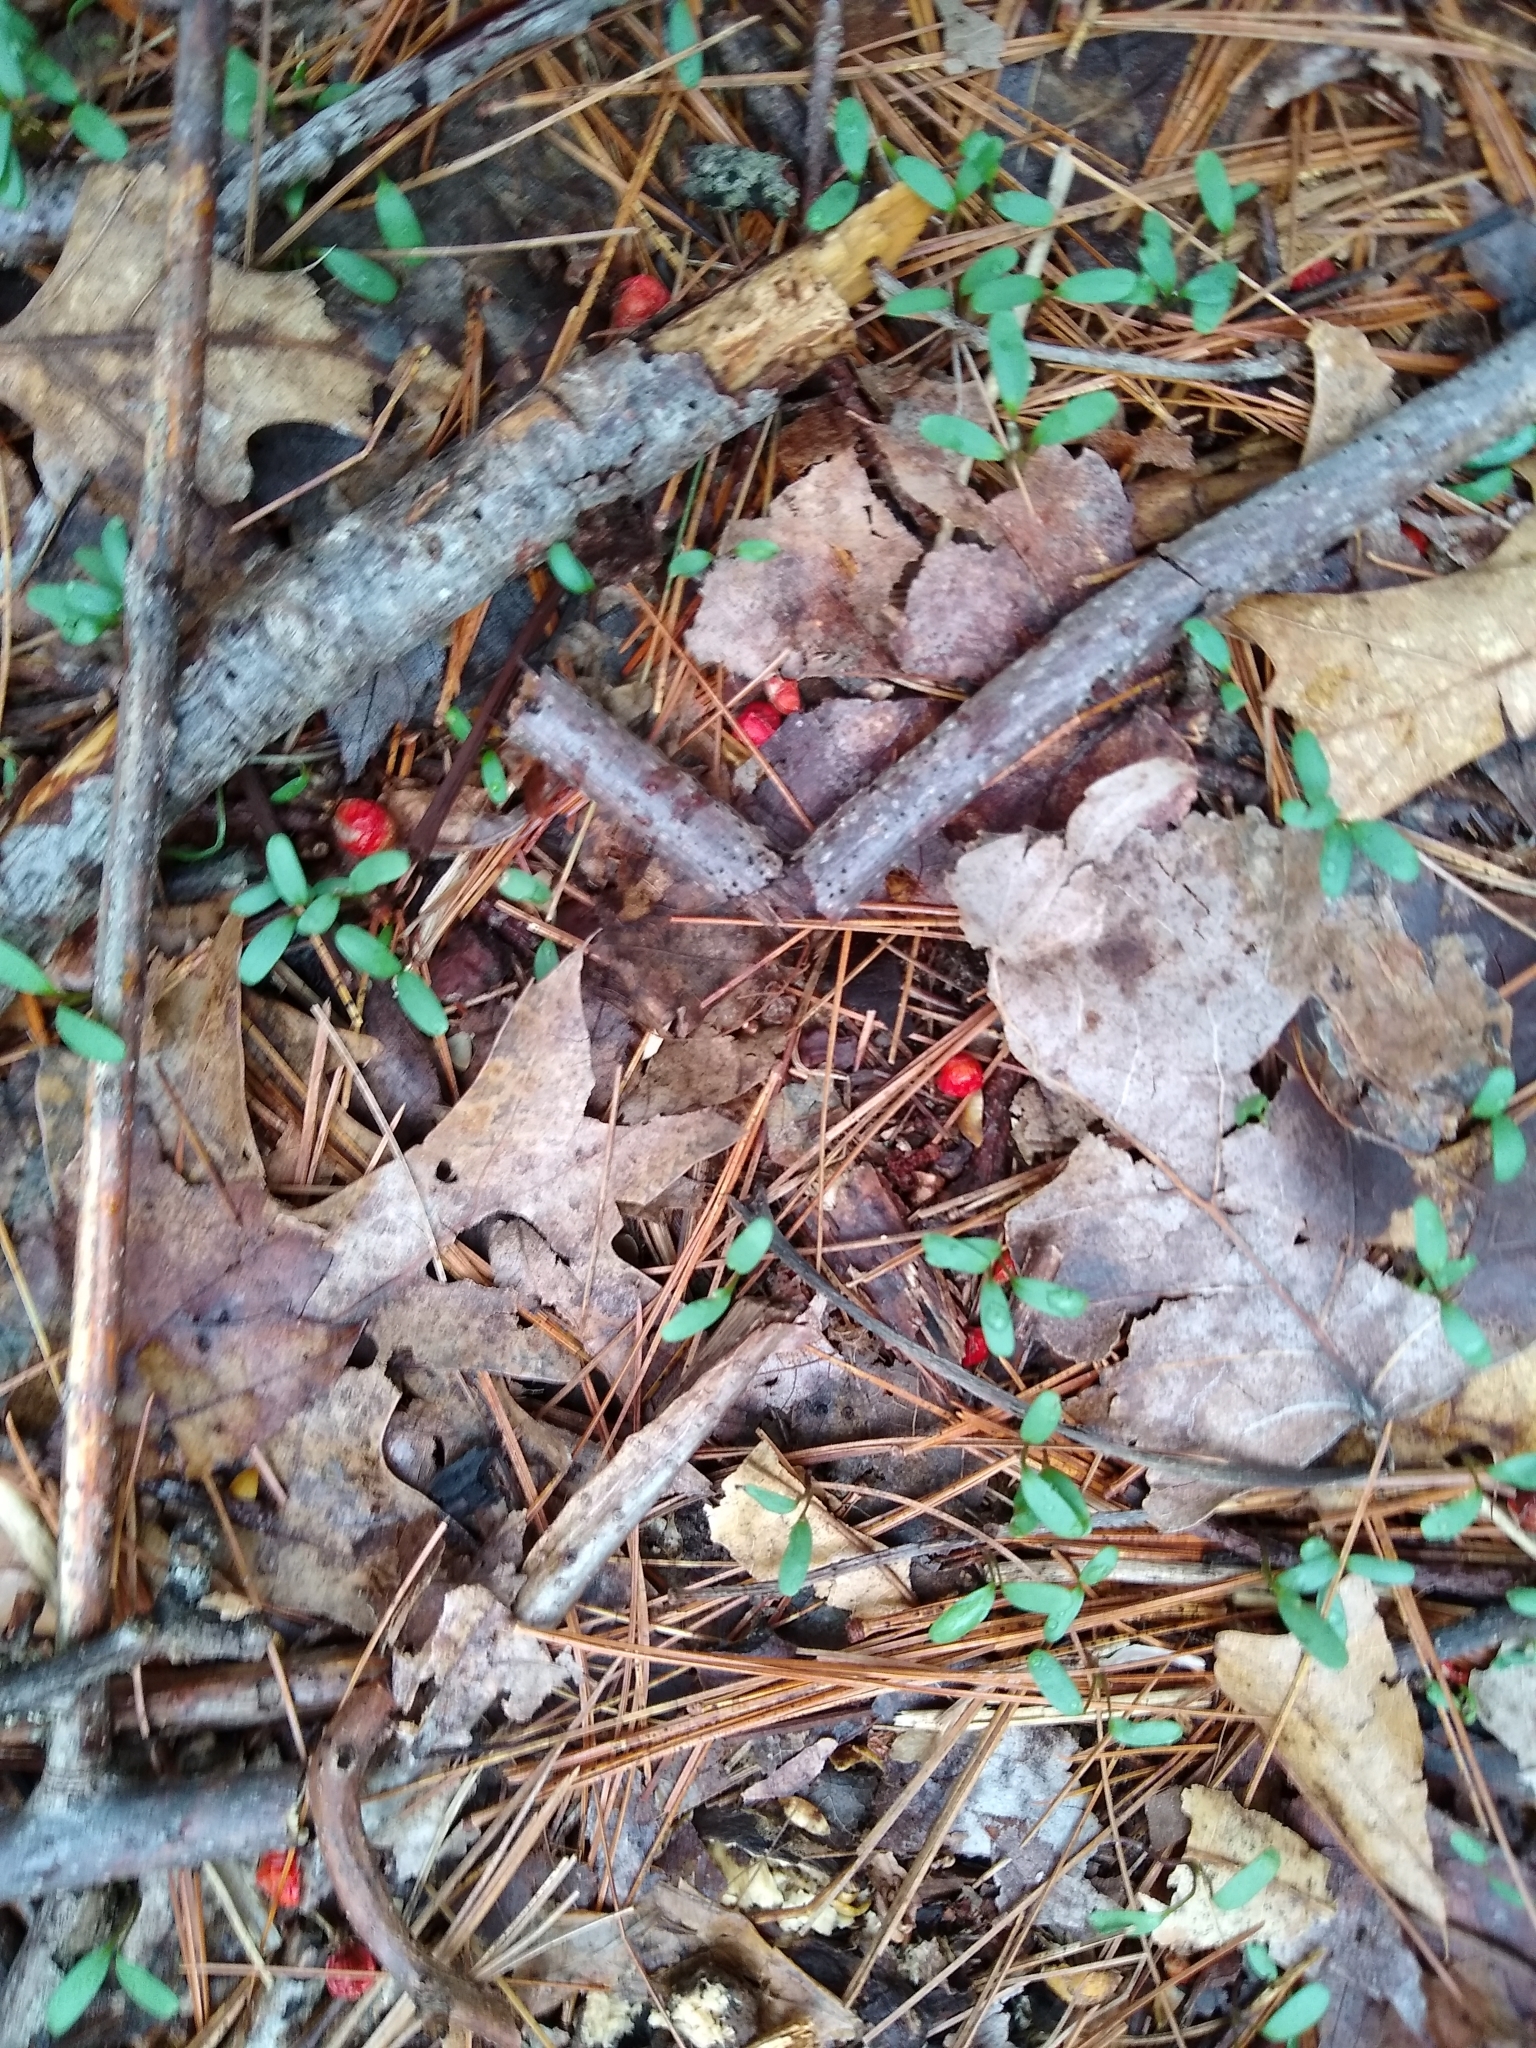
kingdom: Plantae
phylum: Tracheophyta
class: Magnoliopsida
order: Brassicales
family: Brassicaceae
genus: Alliaria
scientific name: Alliaria petiolata
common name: Garlic mustard
